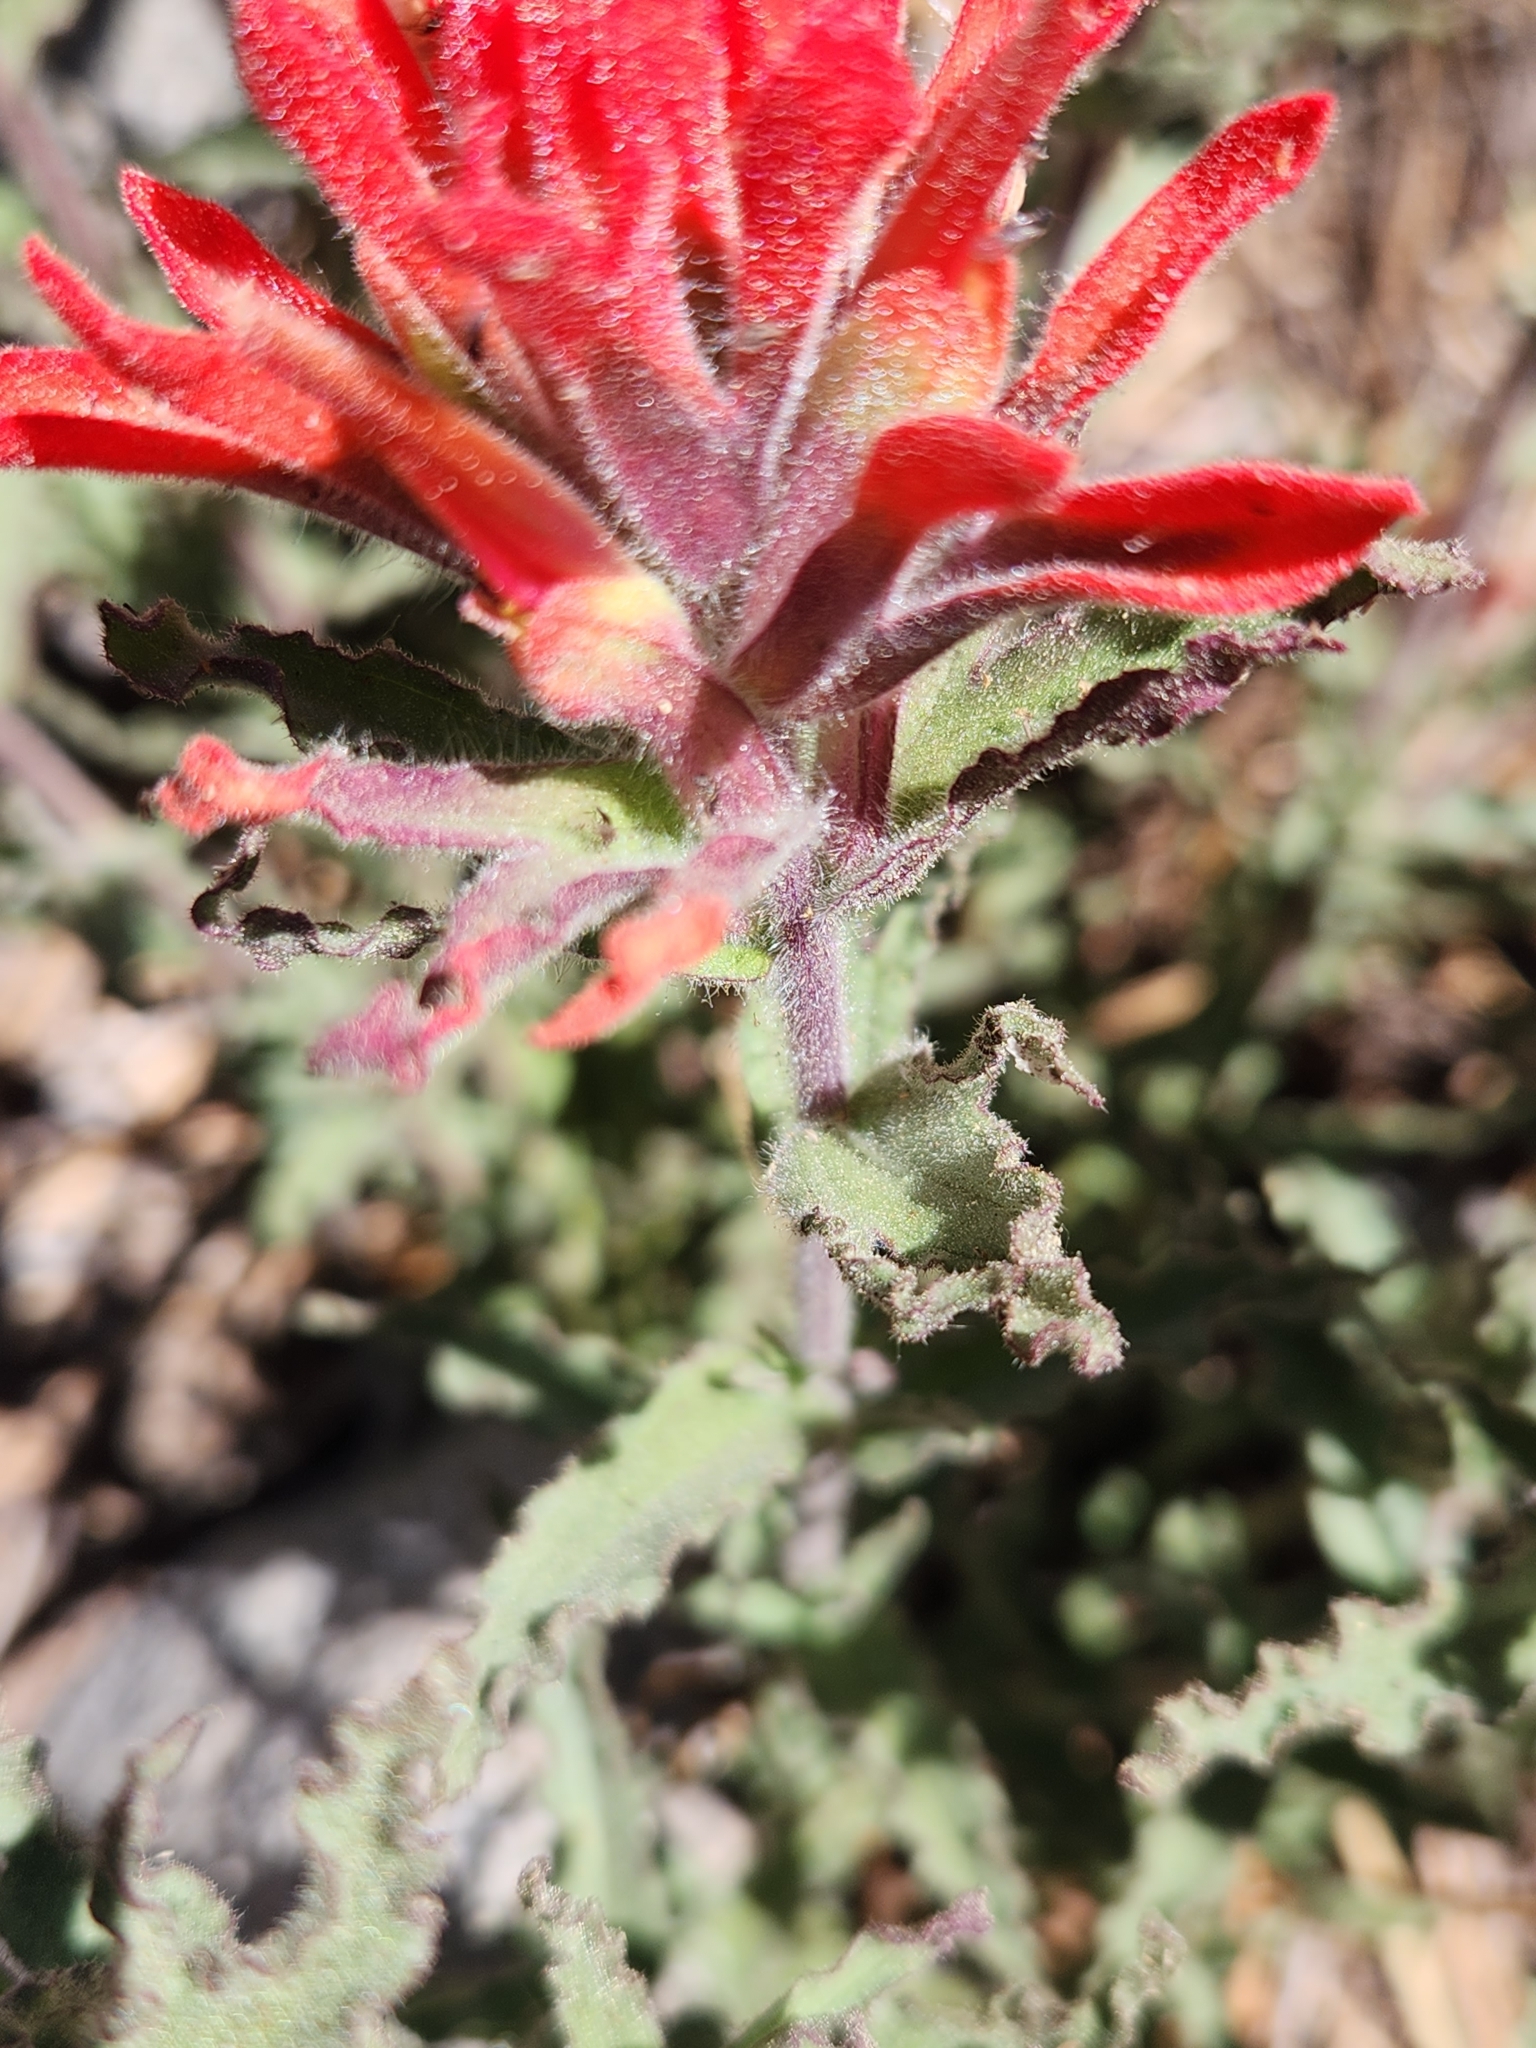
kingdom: Plantae
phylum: Tracheophyta
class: Magnoliopsida
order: Lamiales
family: Orobanchaceae
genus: Castilleja
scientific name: Castilleja martini
